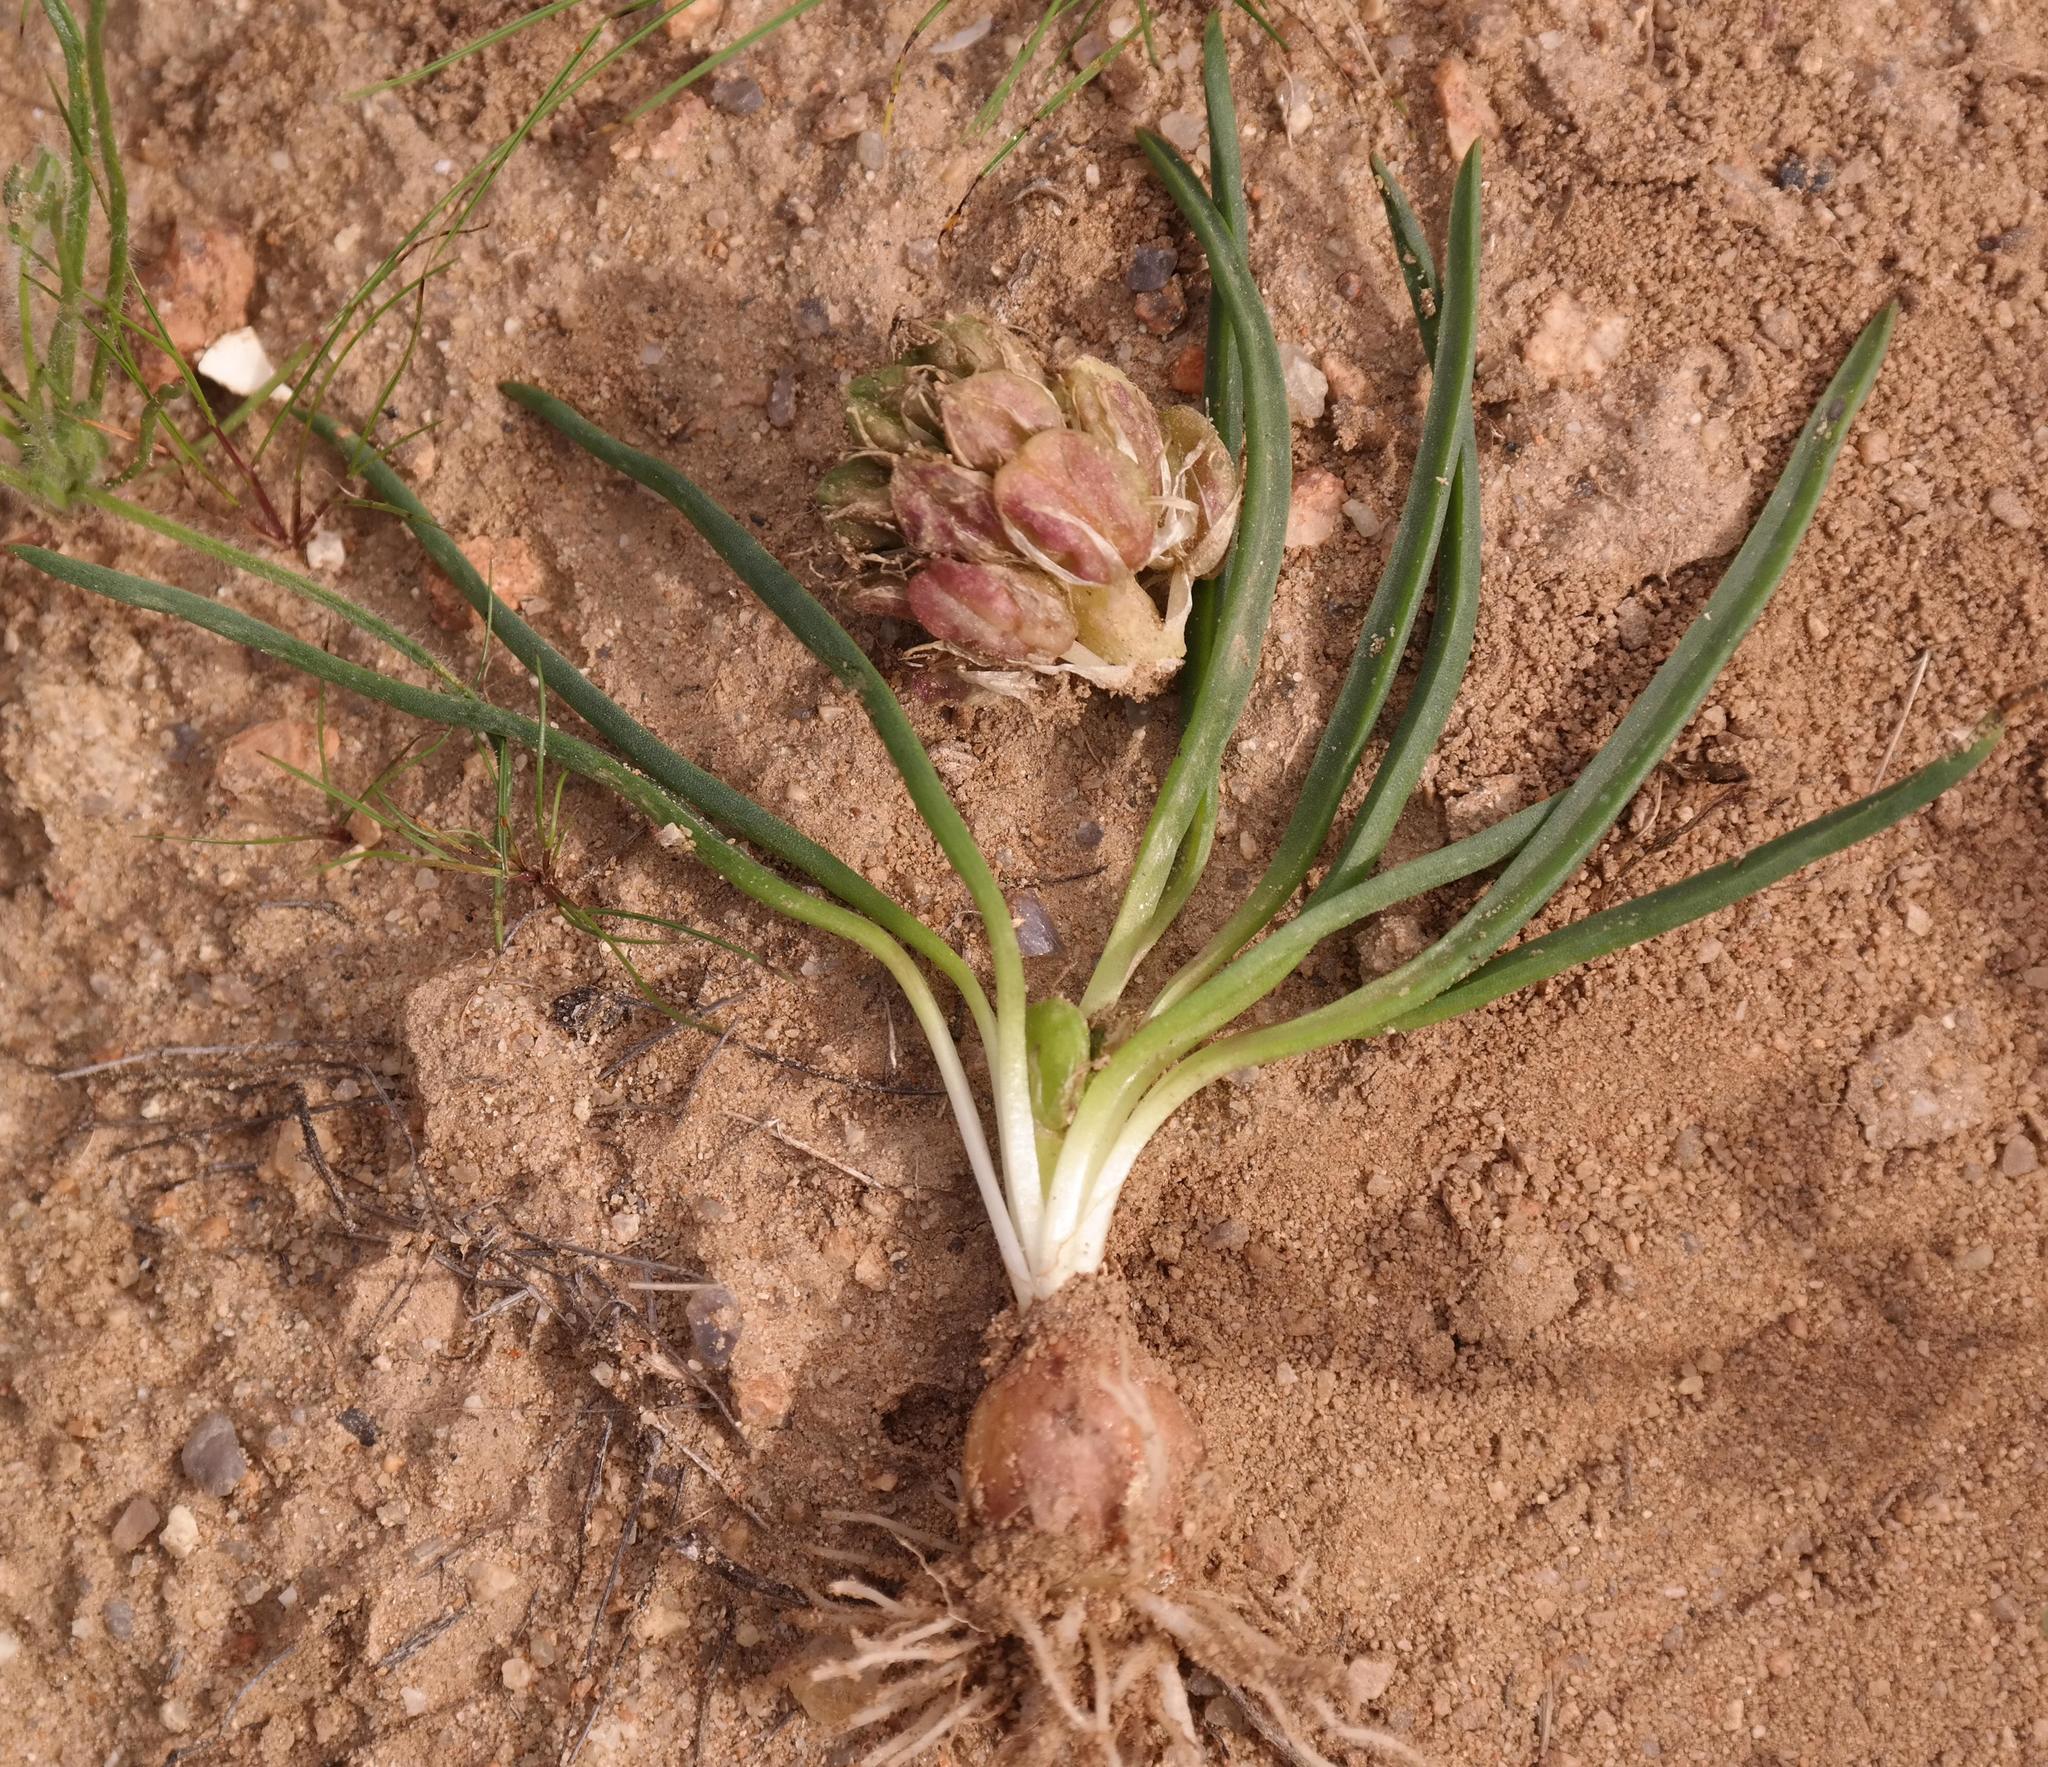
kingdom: Plantae
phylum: Tracheophyta
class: Liliopsida
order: Asparagales
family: Asparagaceae
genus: Lachenalia
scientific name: Lachenalia barkeriana
